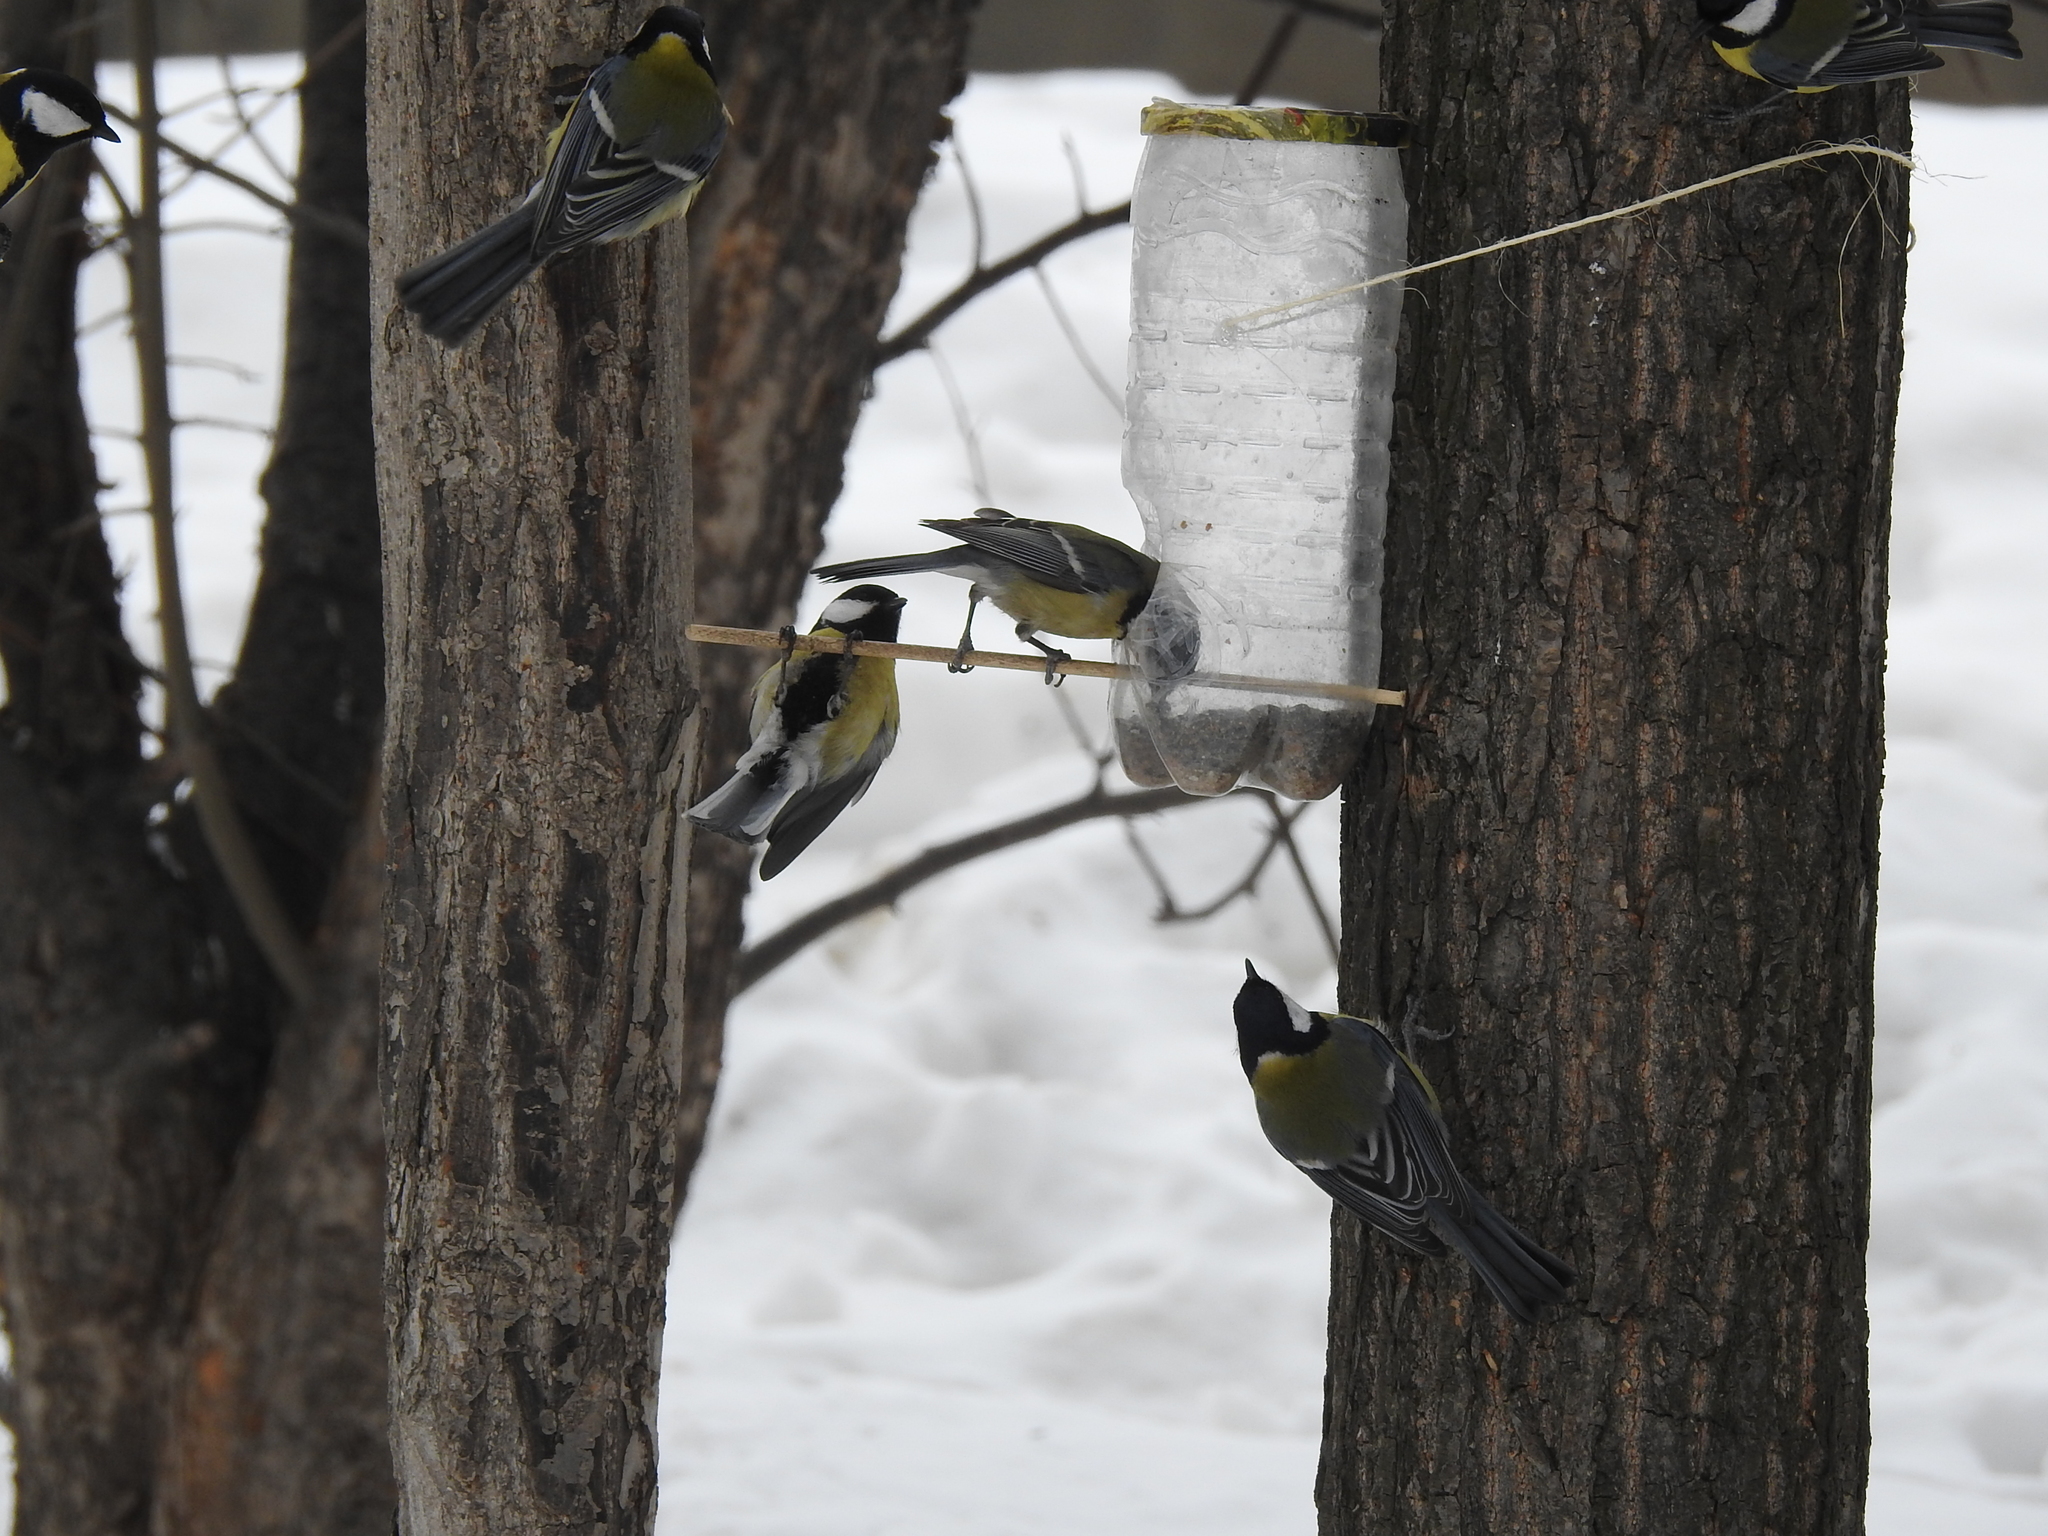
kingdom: Animalia
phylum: Chordata
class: Aves
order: Passeriformes
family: Paridae
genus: Parus
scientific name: Parus major
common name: Great tit
